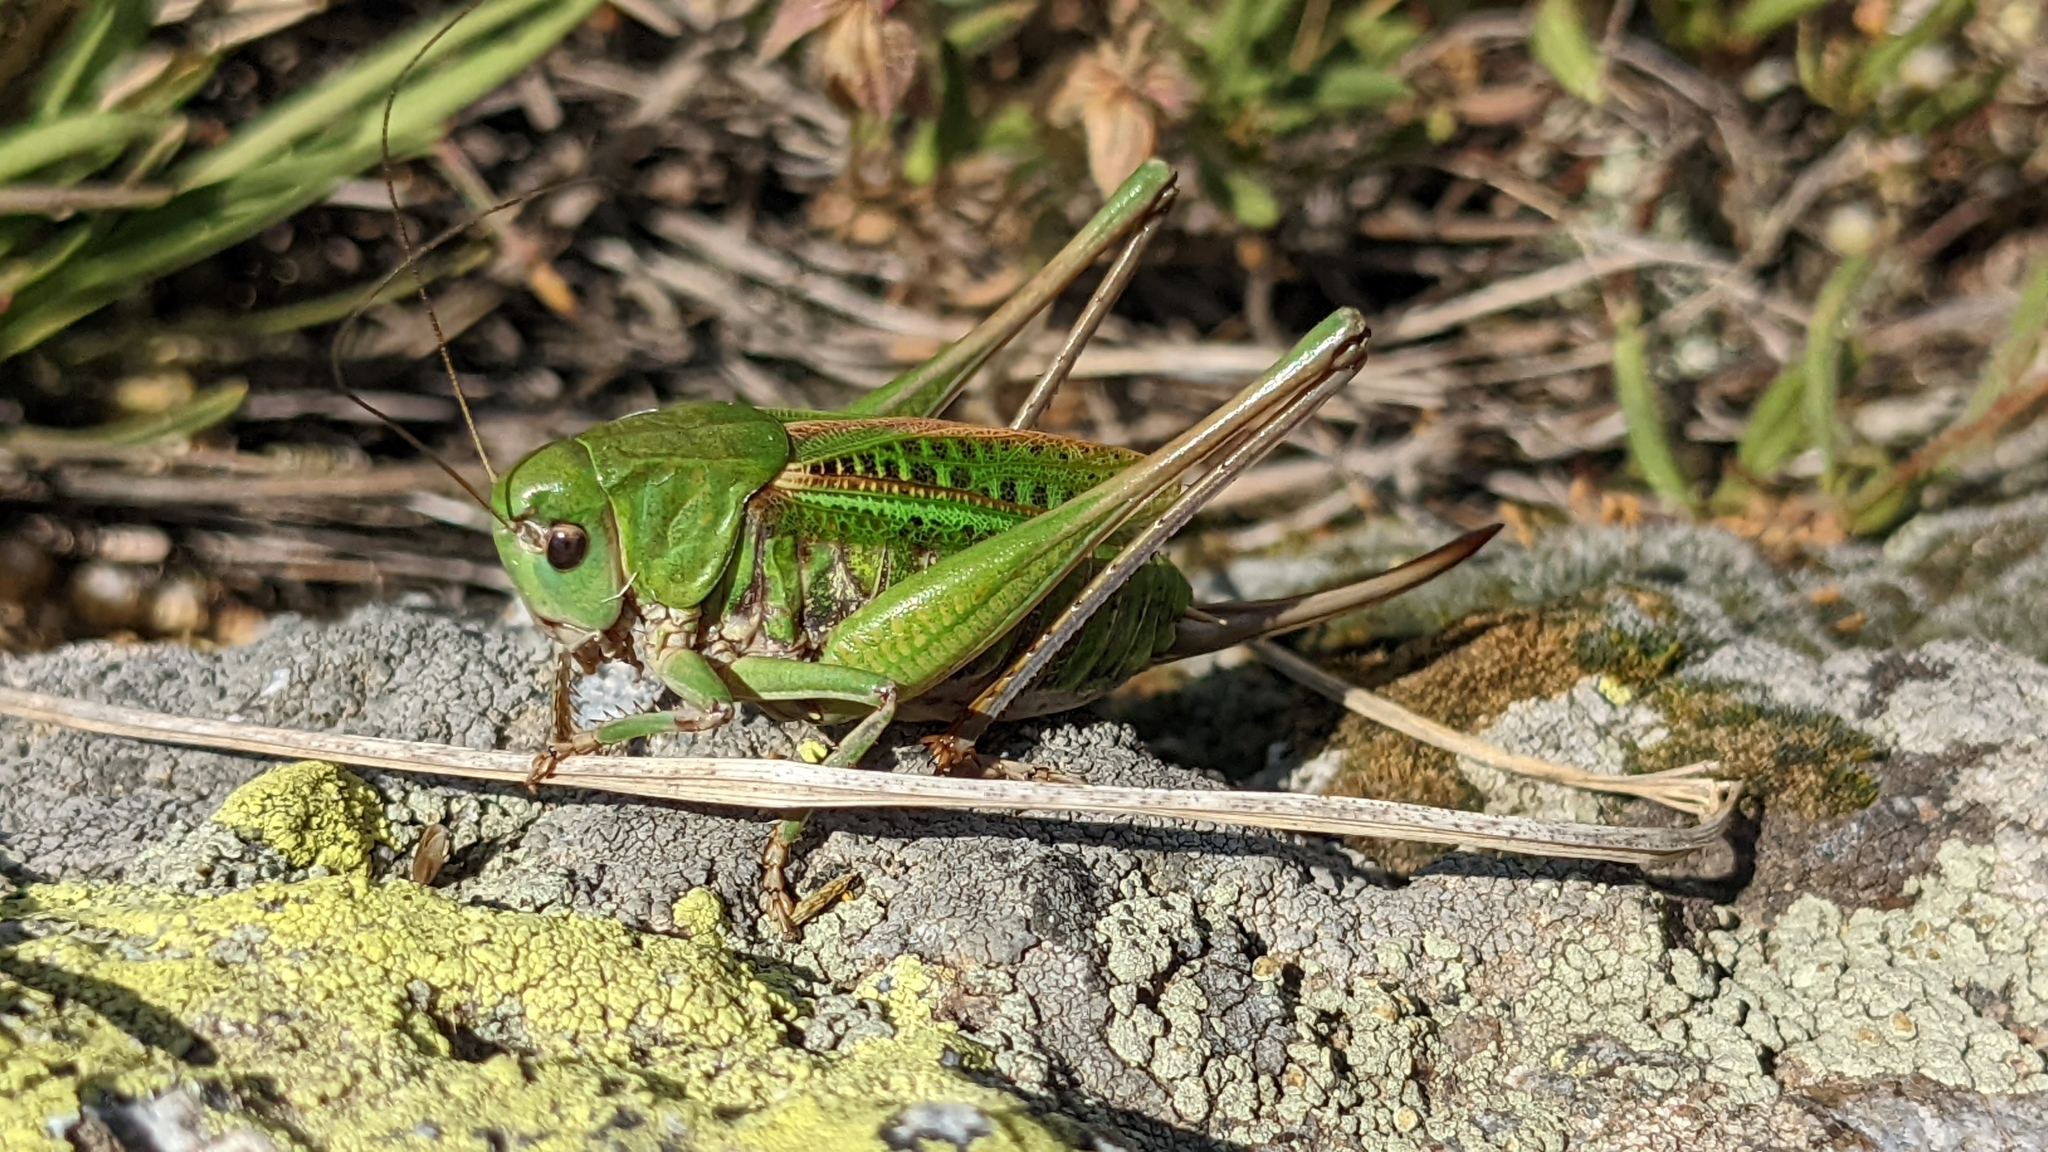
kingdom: Animalia
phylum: Arthropoda
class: Insecta
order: Orthoptera
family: Tettigoniidae
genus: Decticus
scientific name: Decticus verrucivorus
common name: Wart-biter
